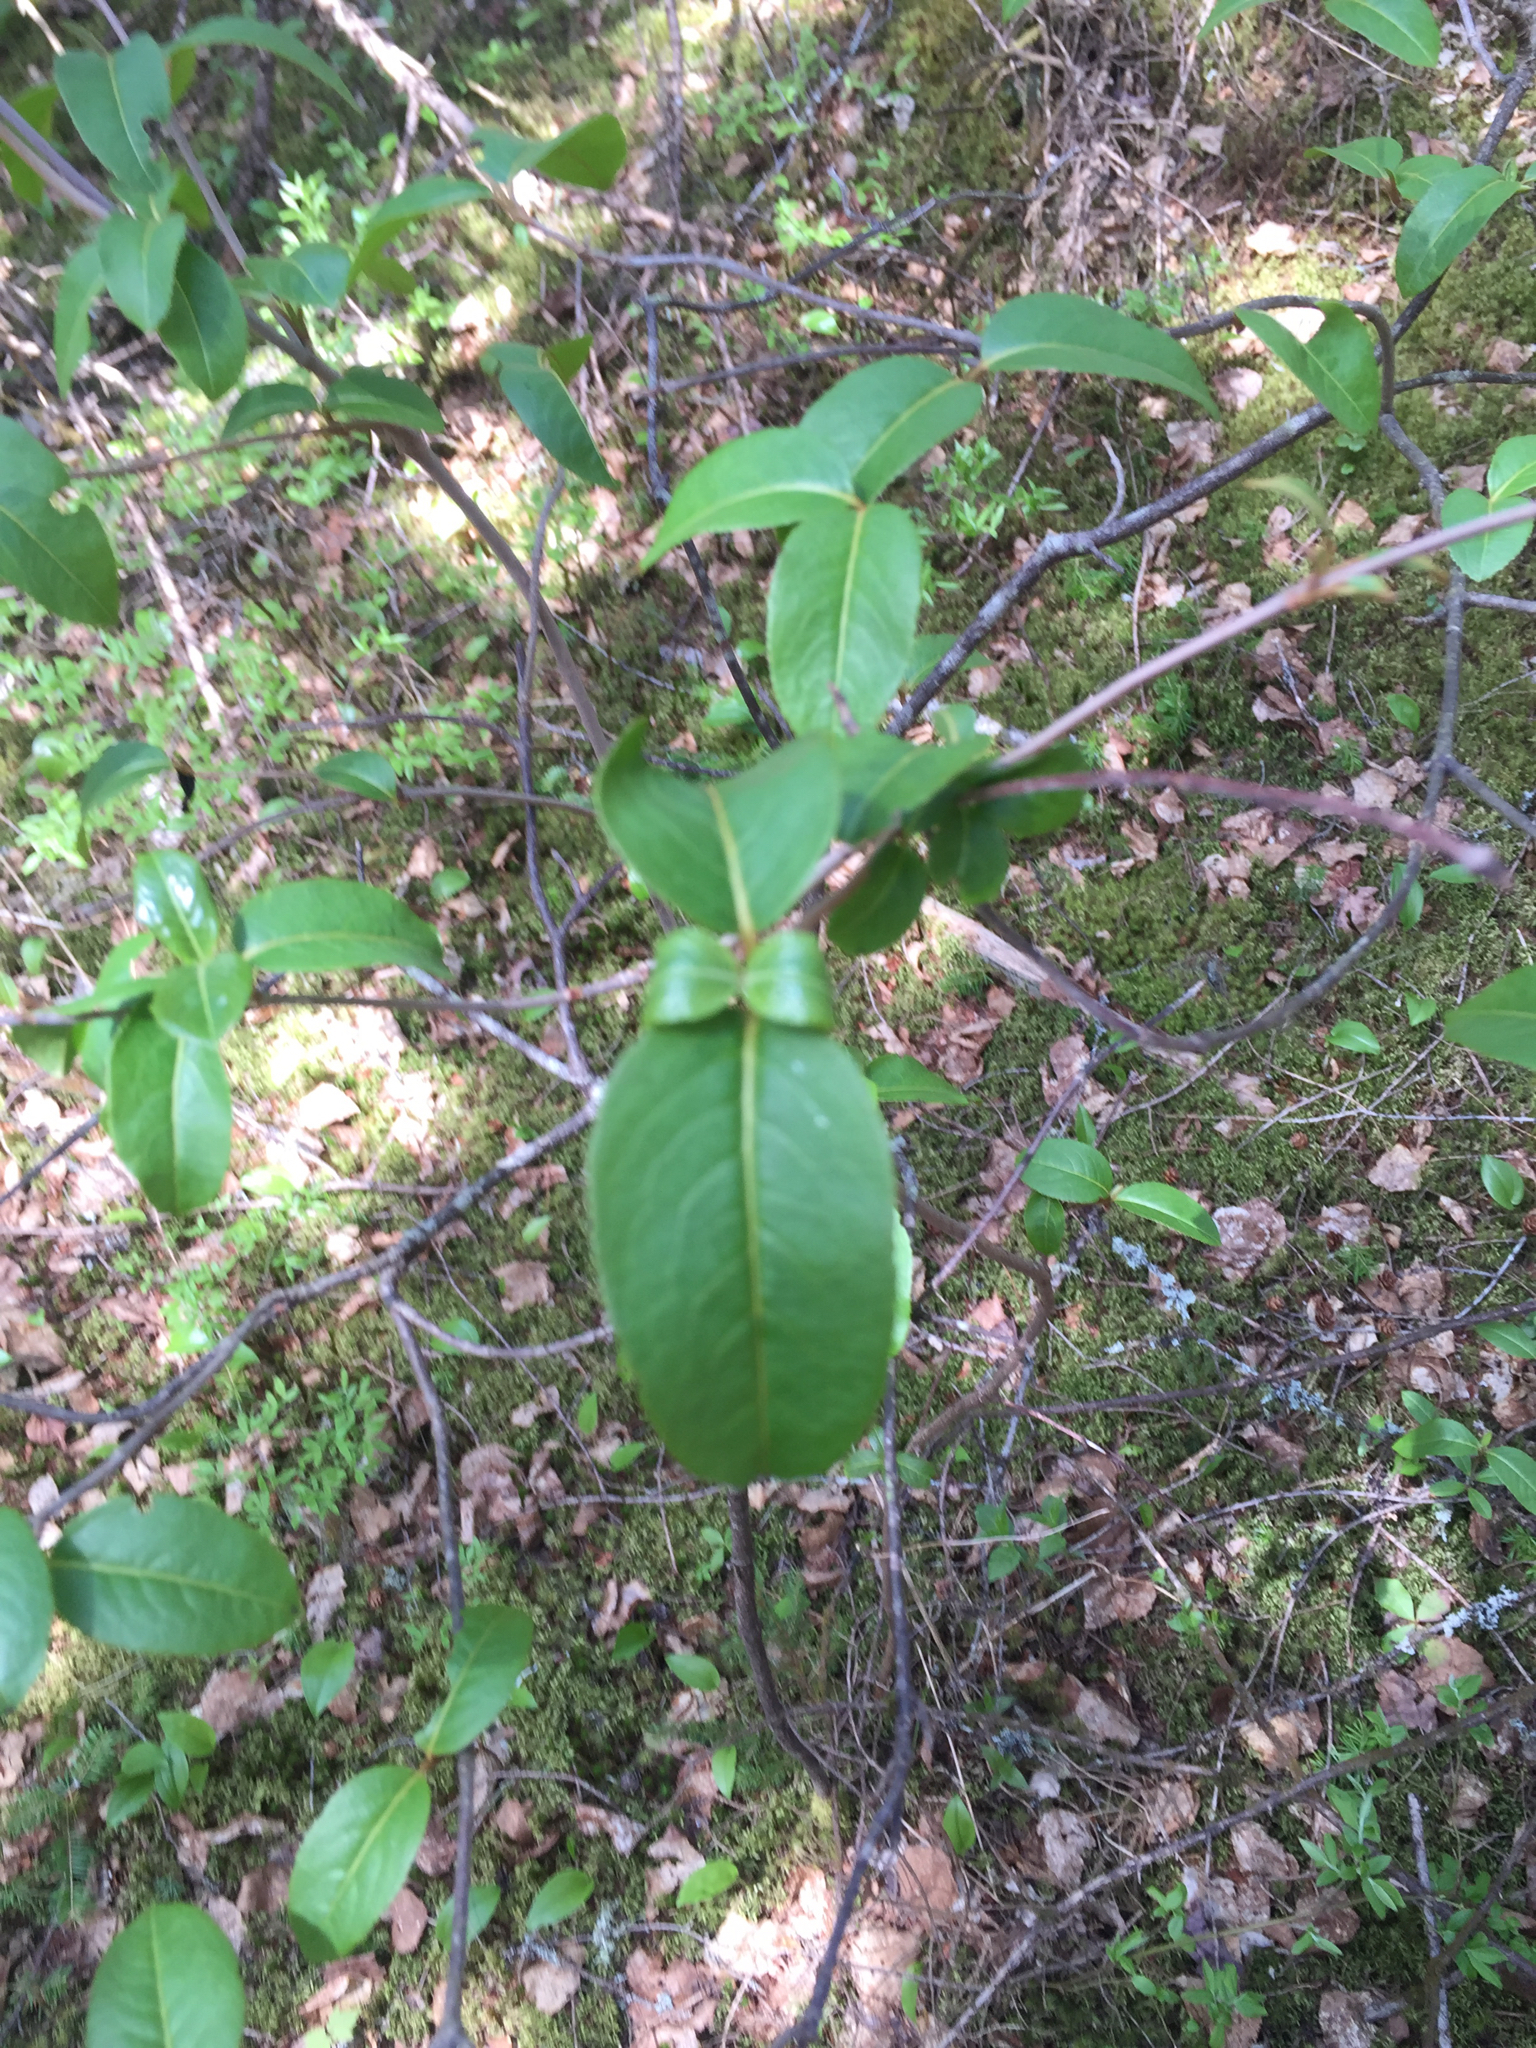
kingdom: Plantae
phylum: Tracheophyta
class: Magnoliopsida
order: Dipsacales
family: Viburnaceae
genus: Viburnum
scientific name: Viburnum cassinoides
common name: Swamp haw
